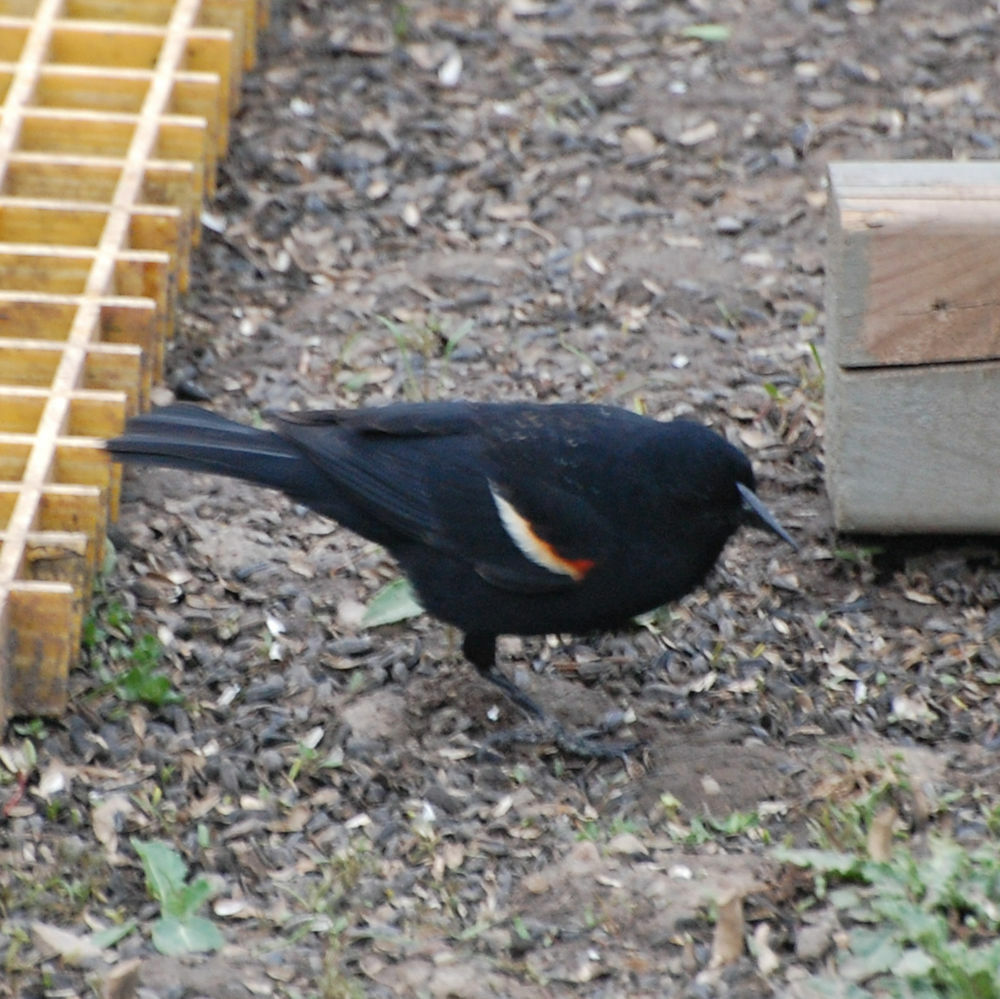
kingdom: Animalia
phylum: Chordata
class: Aves
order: Passeriformes
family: Icteridae
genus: Agelaius
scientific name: Agelaius phoeniceus
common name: Red-winged blackbird
